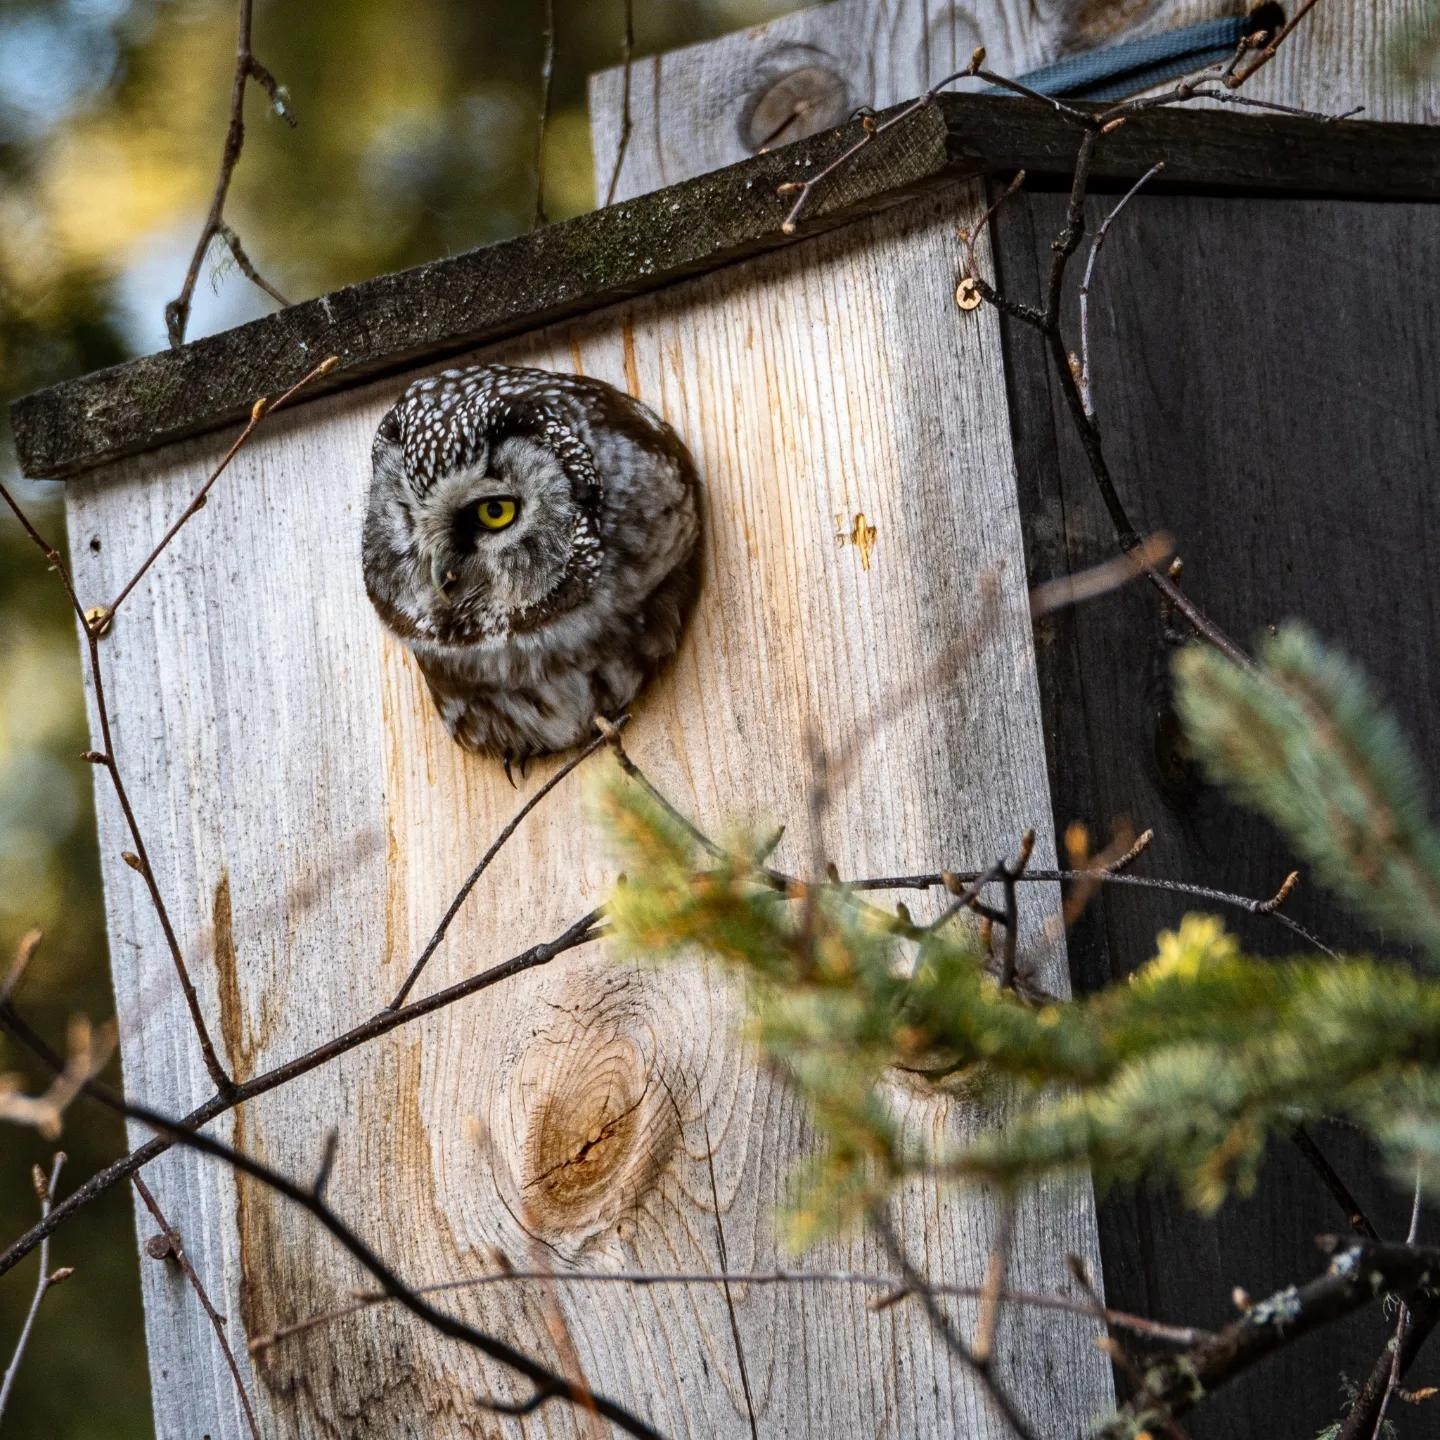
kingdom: Animalia
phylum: Chordata
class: Aves
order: Strigiformes
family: Strigidae
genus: Aegolius
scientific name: Aegolius funereus
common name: Boreal owl
